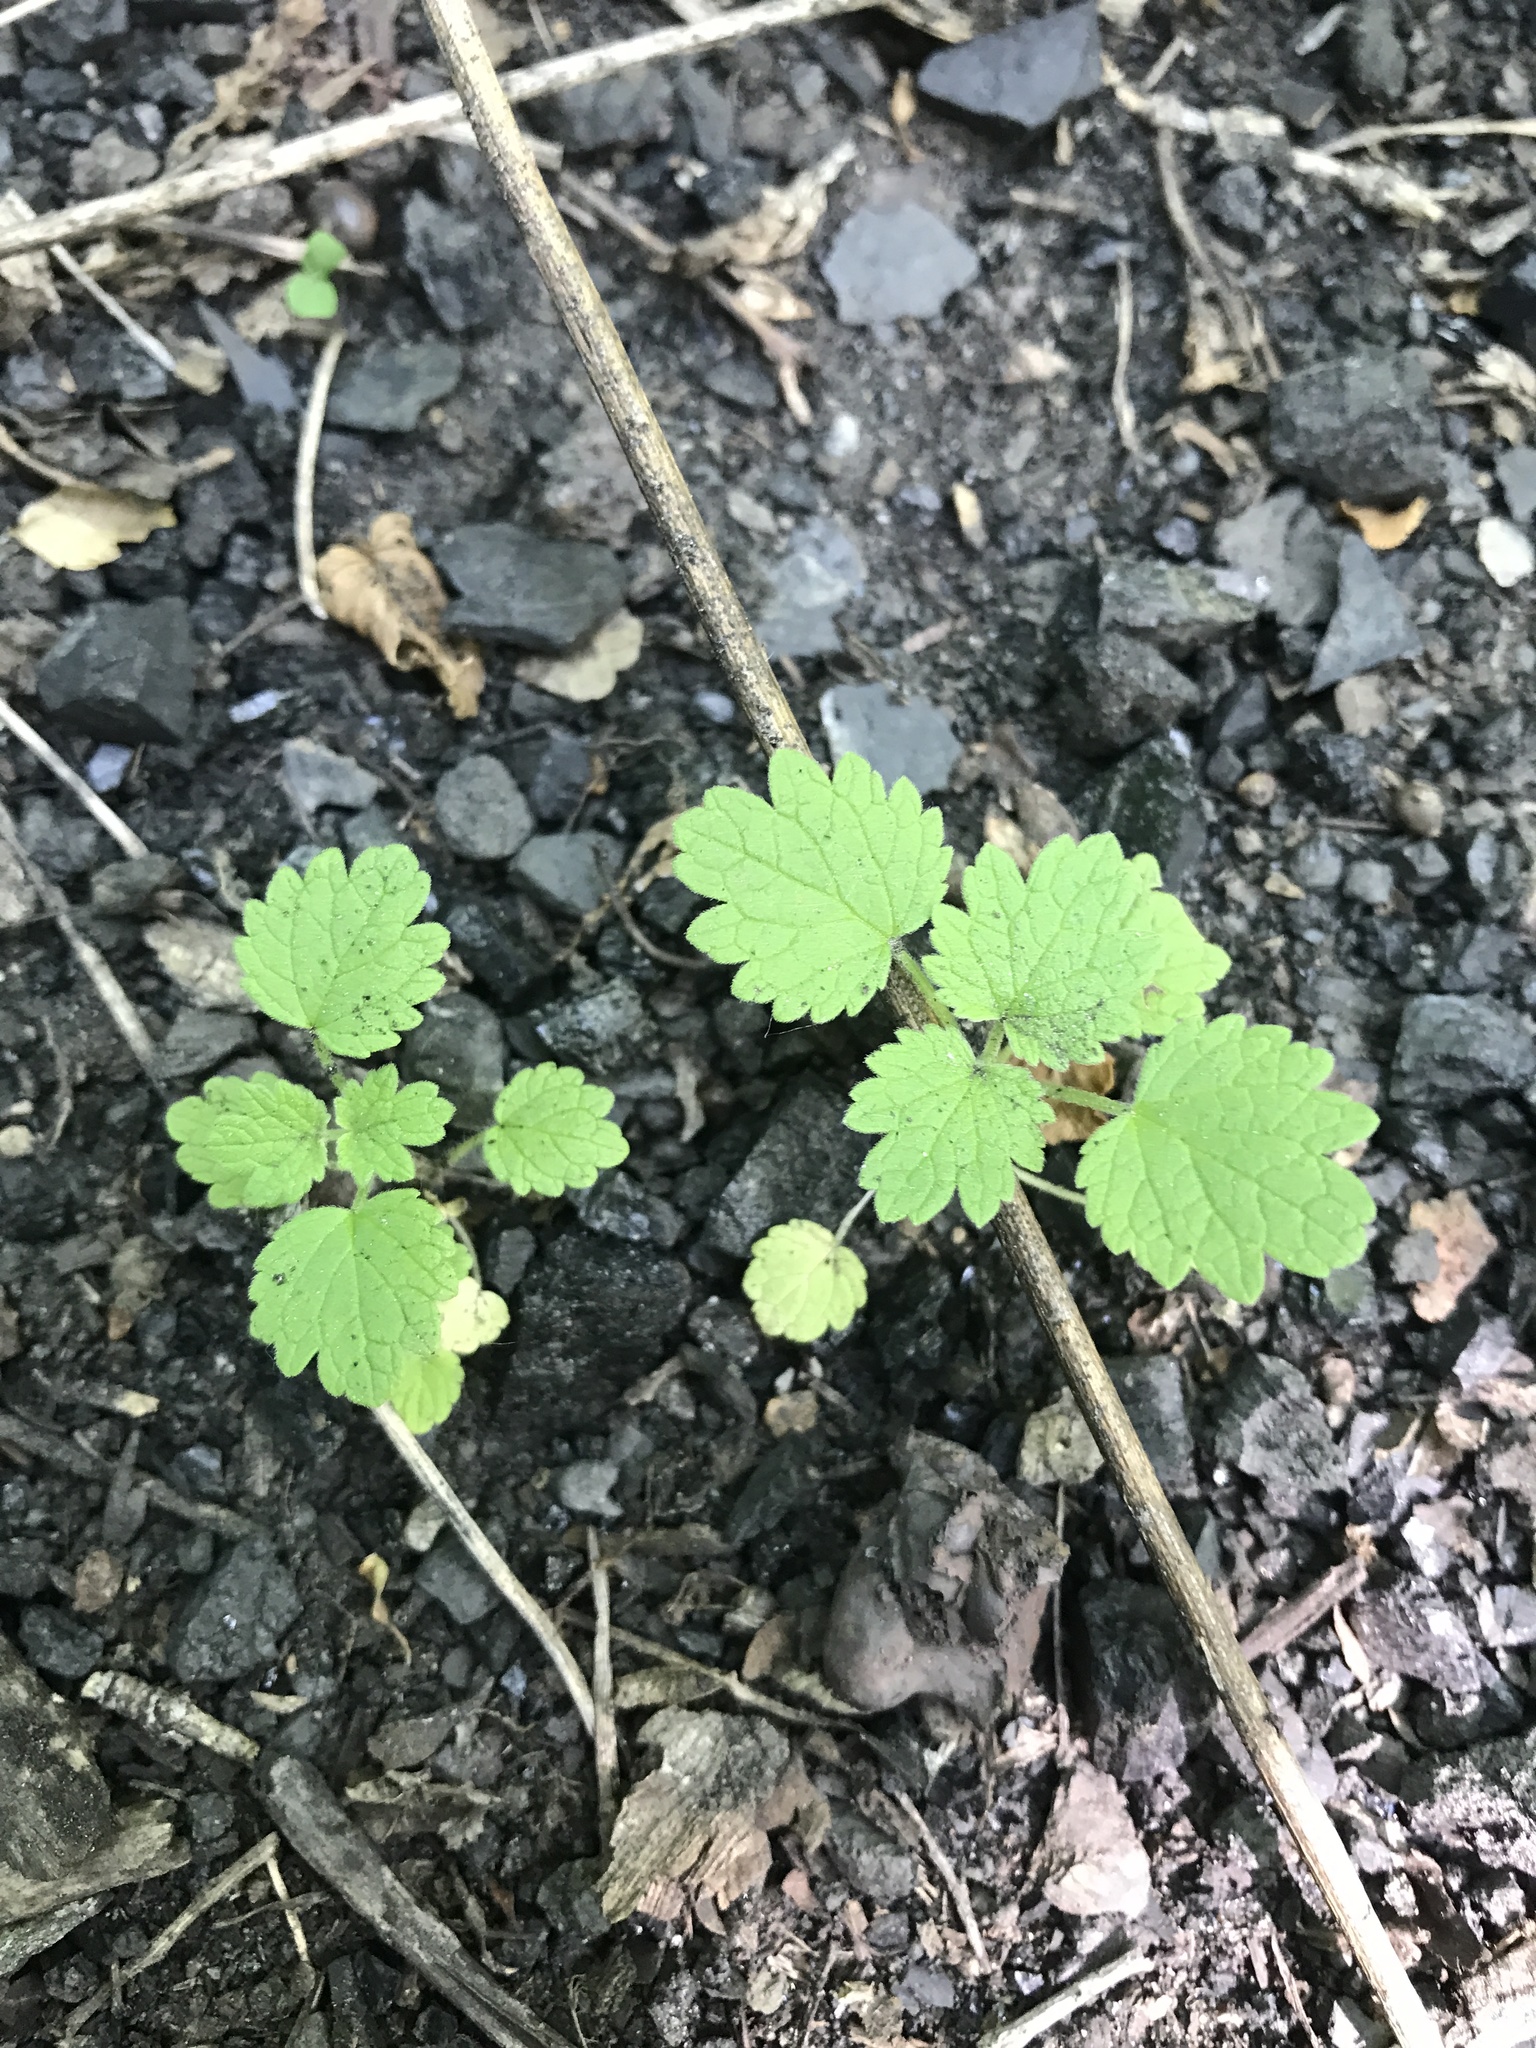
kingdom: Plantae
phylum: Tracheophyta
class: Magnoliopsida
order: Lamiales
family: Lamiaceae
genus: Leonurus
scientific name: Leonurus cardiaca
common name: Motherwort
